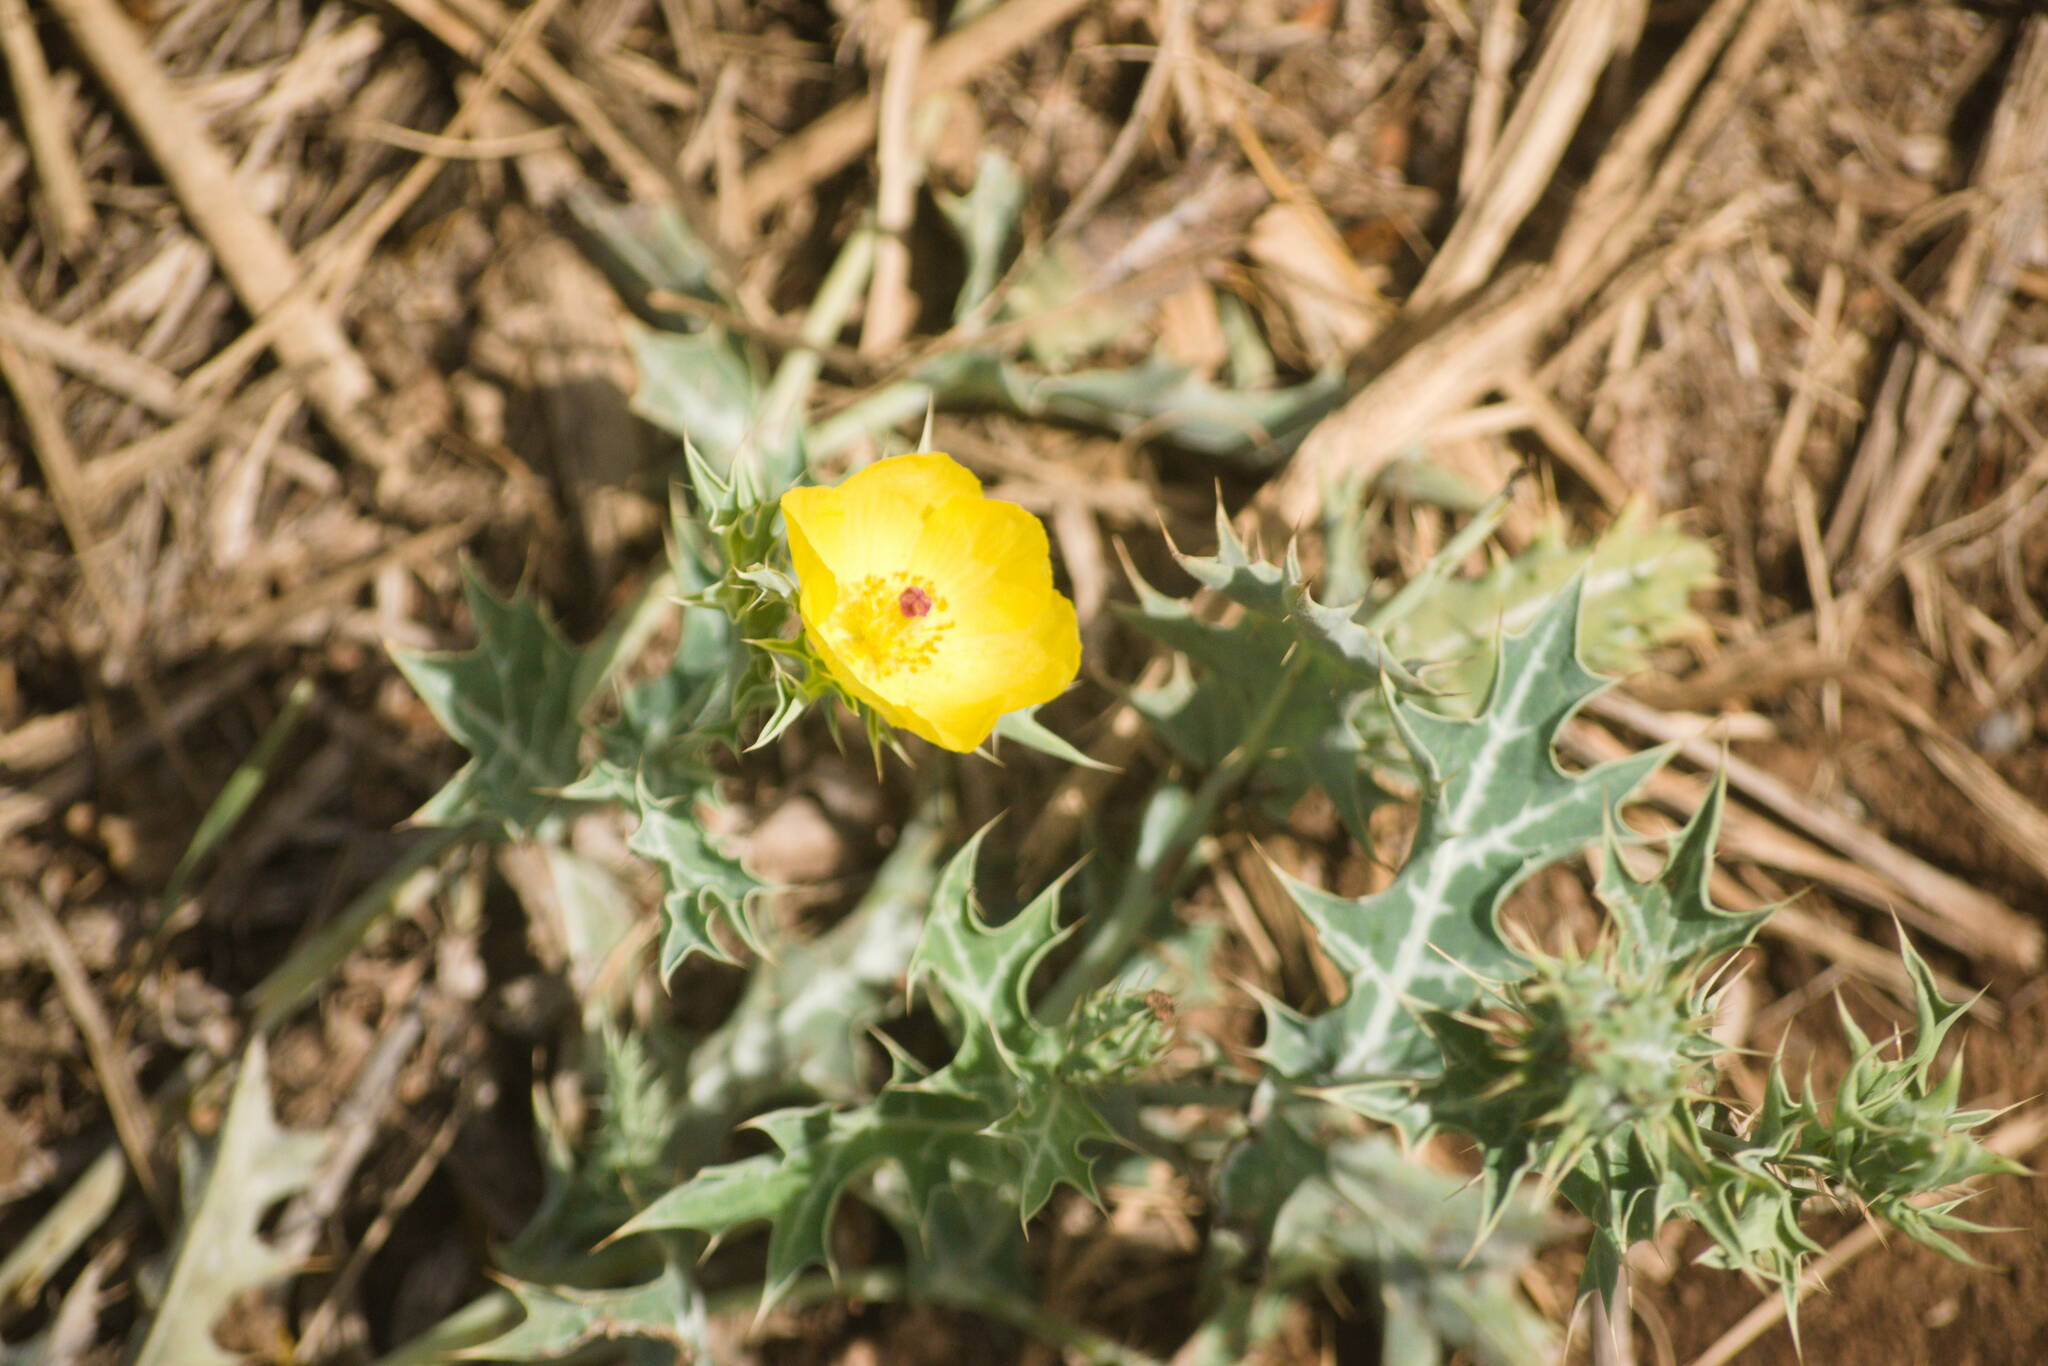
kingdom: Plantae
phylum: Tracheophyta
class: Magnoliopsida
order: Ranunculales
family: Papaveraceae
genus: Argemone
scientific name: Argemone mexicana
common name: Mexican poppy
